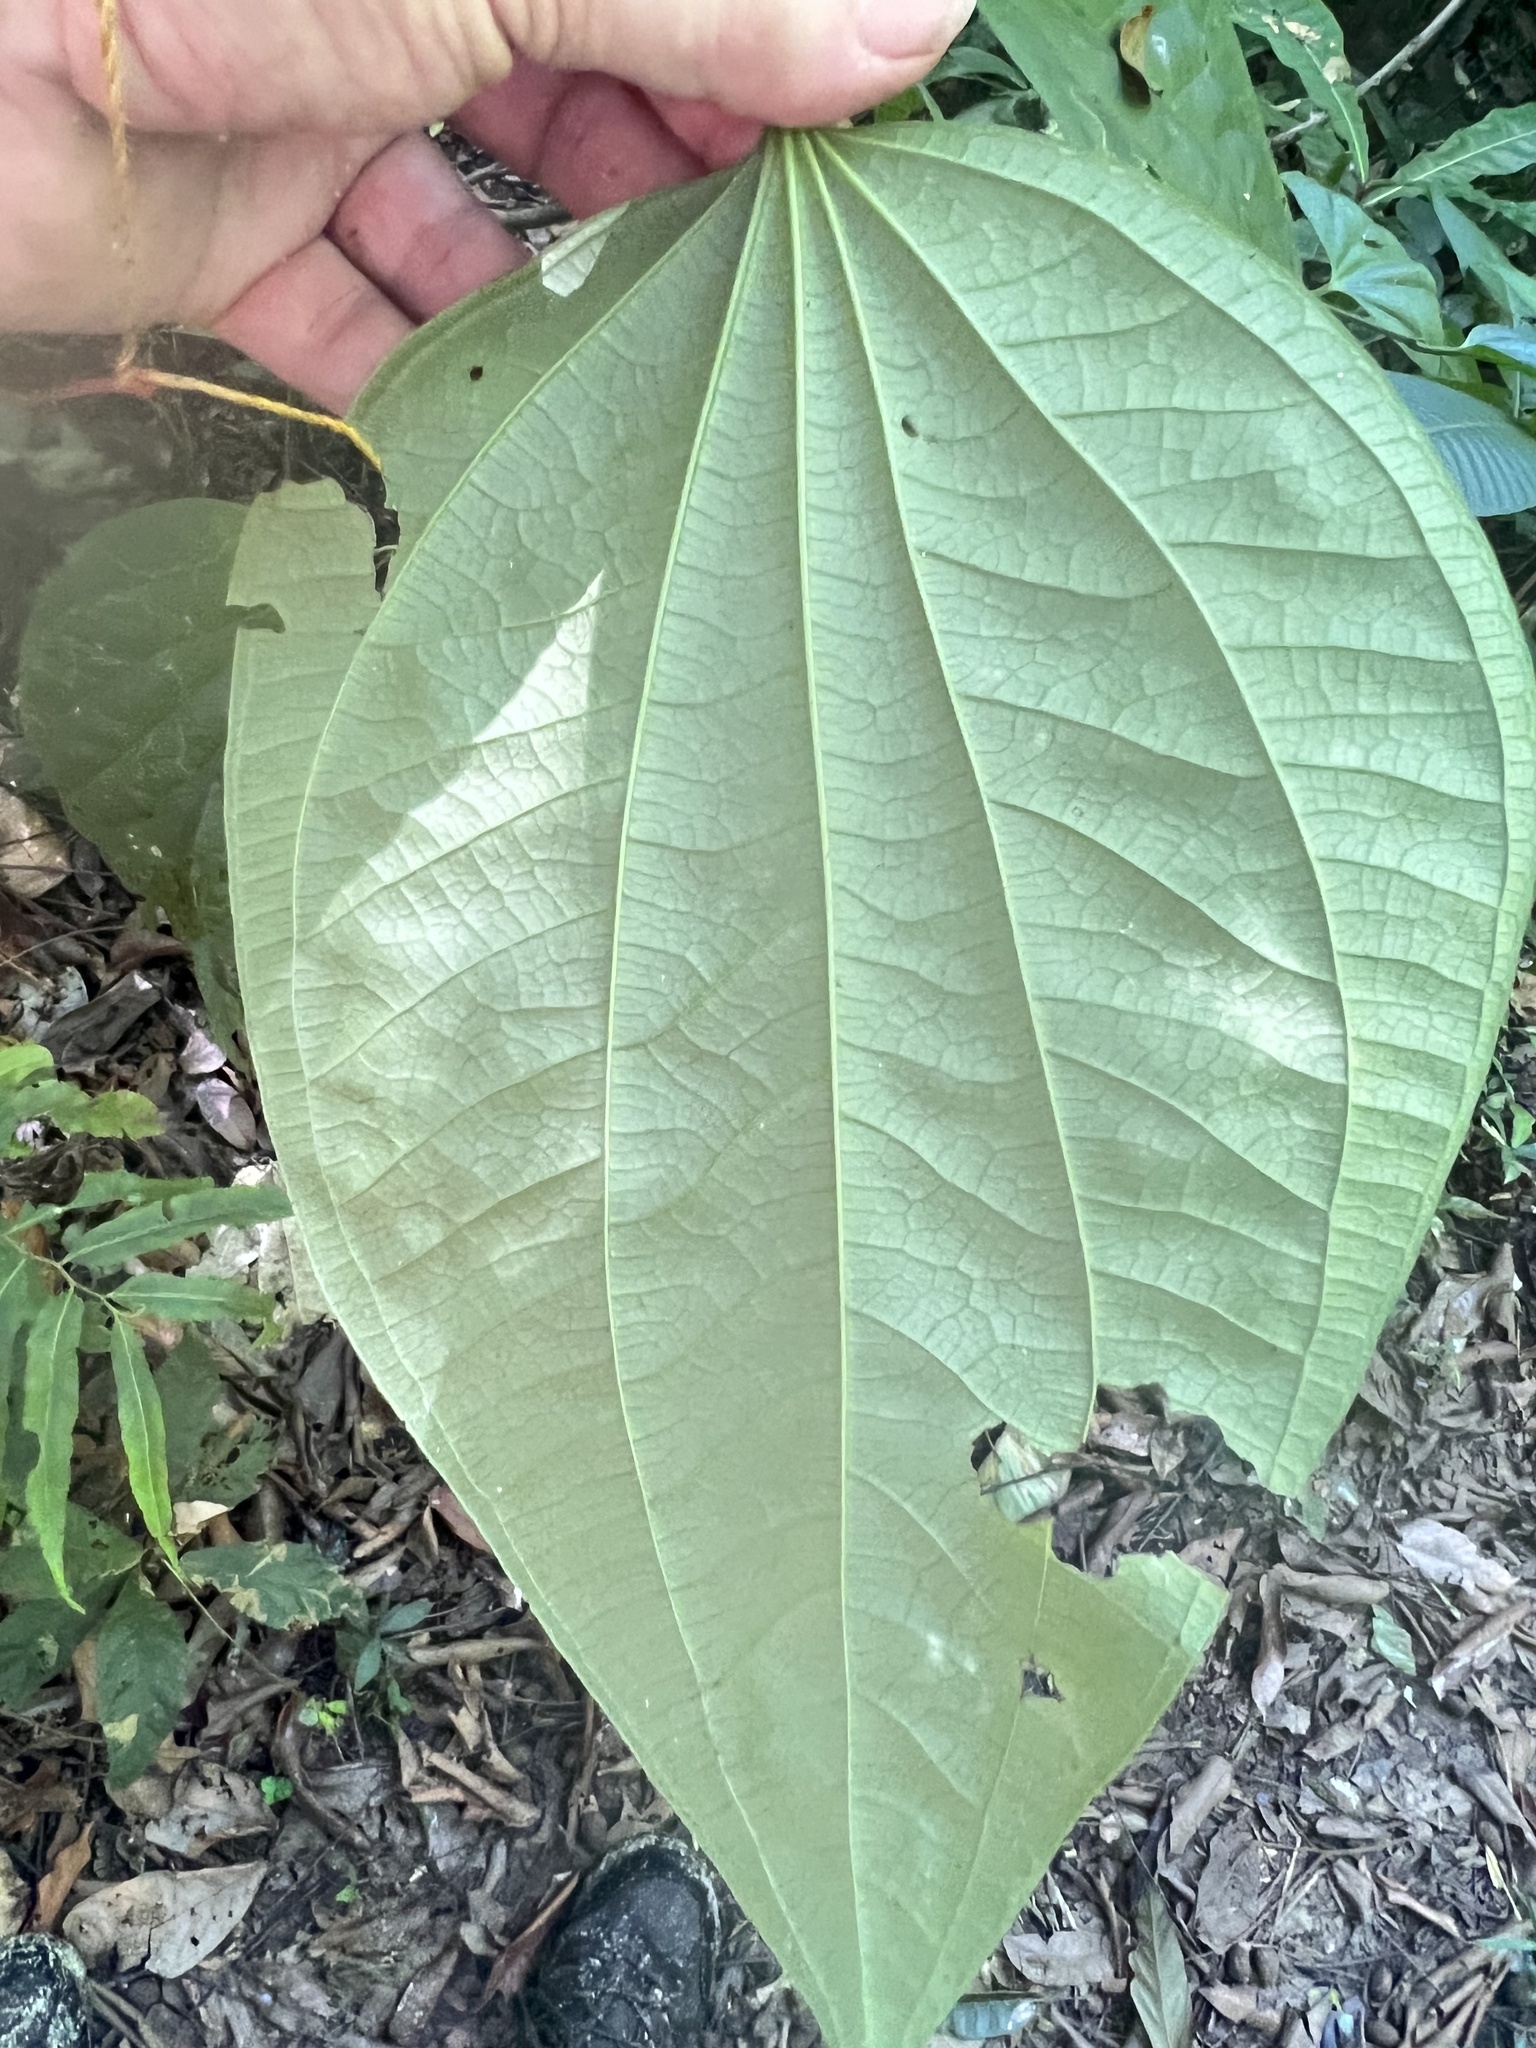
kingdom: Plantae
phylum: Tracheophyta
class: Magnoliopsida
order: Piperales
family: Piperaceae
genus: Piper
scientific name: Piper marginatum
